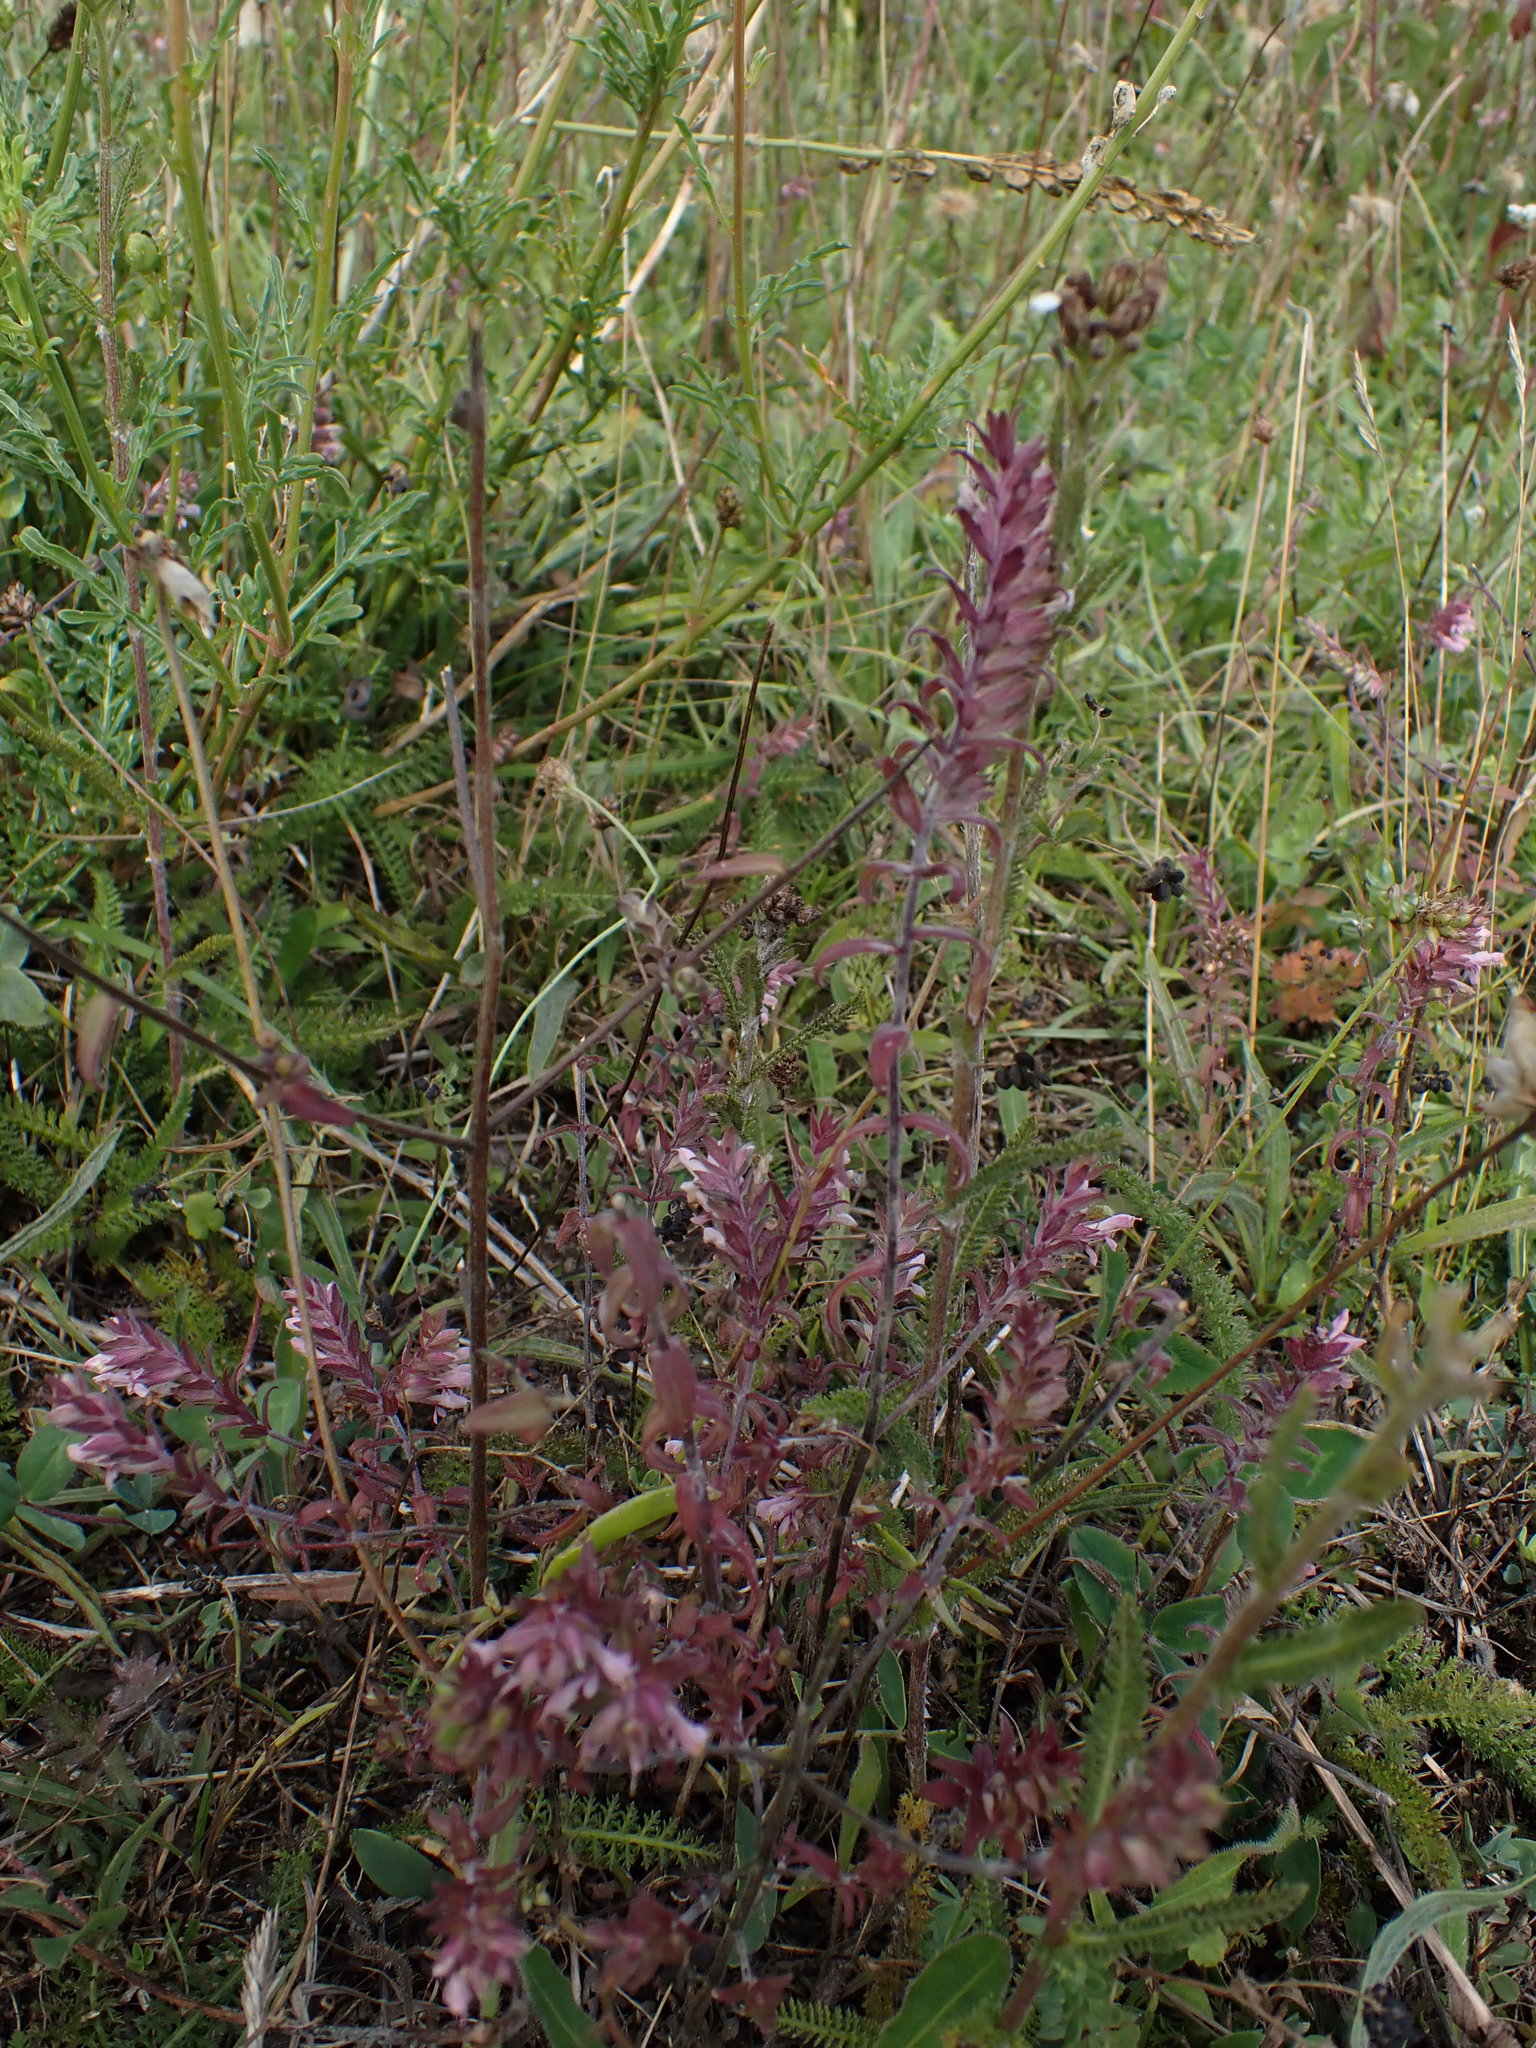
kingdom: Plantae
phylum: Tracheophyta
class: Magnoliopsida
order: Lamiales
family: Orobanchaceae
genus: Odontites
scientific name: Odontites vulgaris
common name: Broomrape
